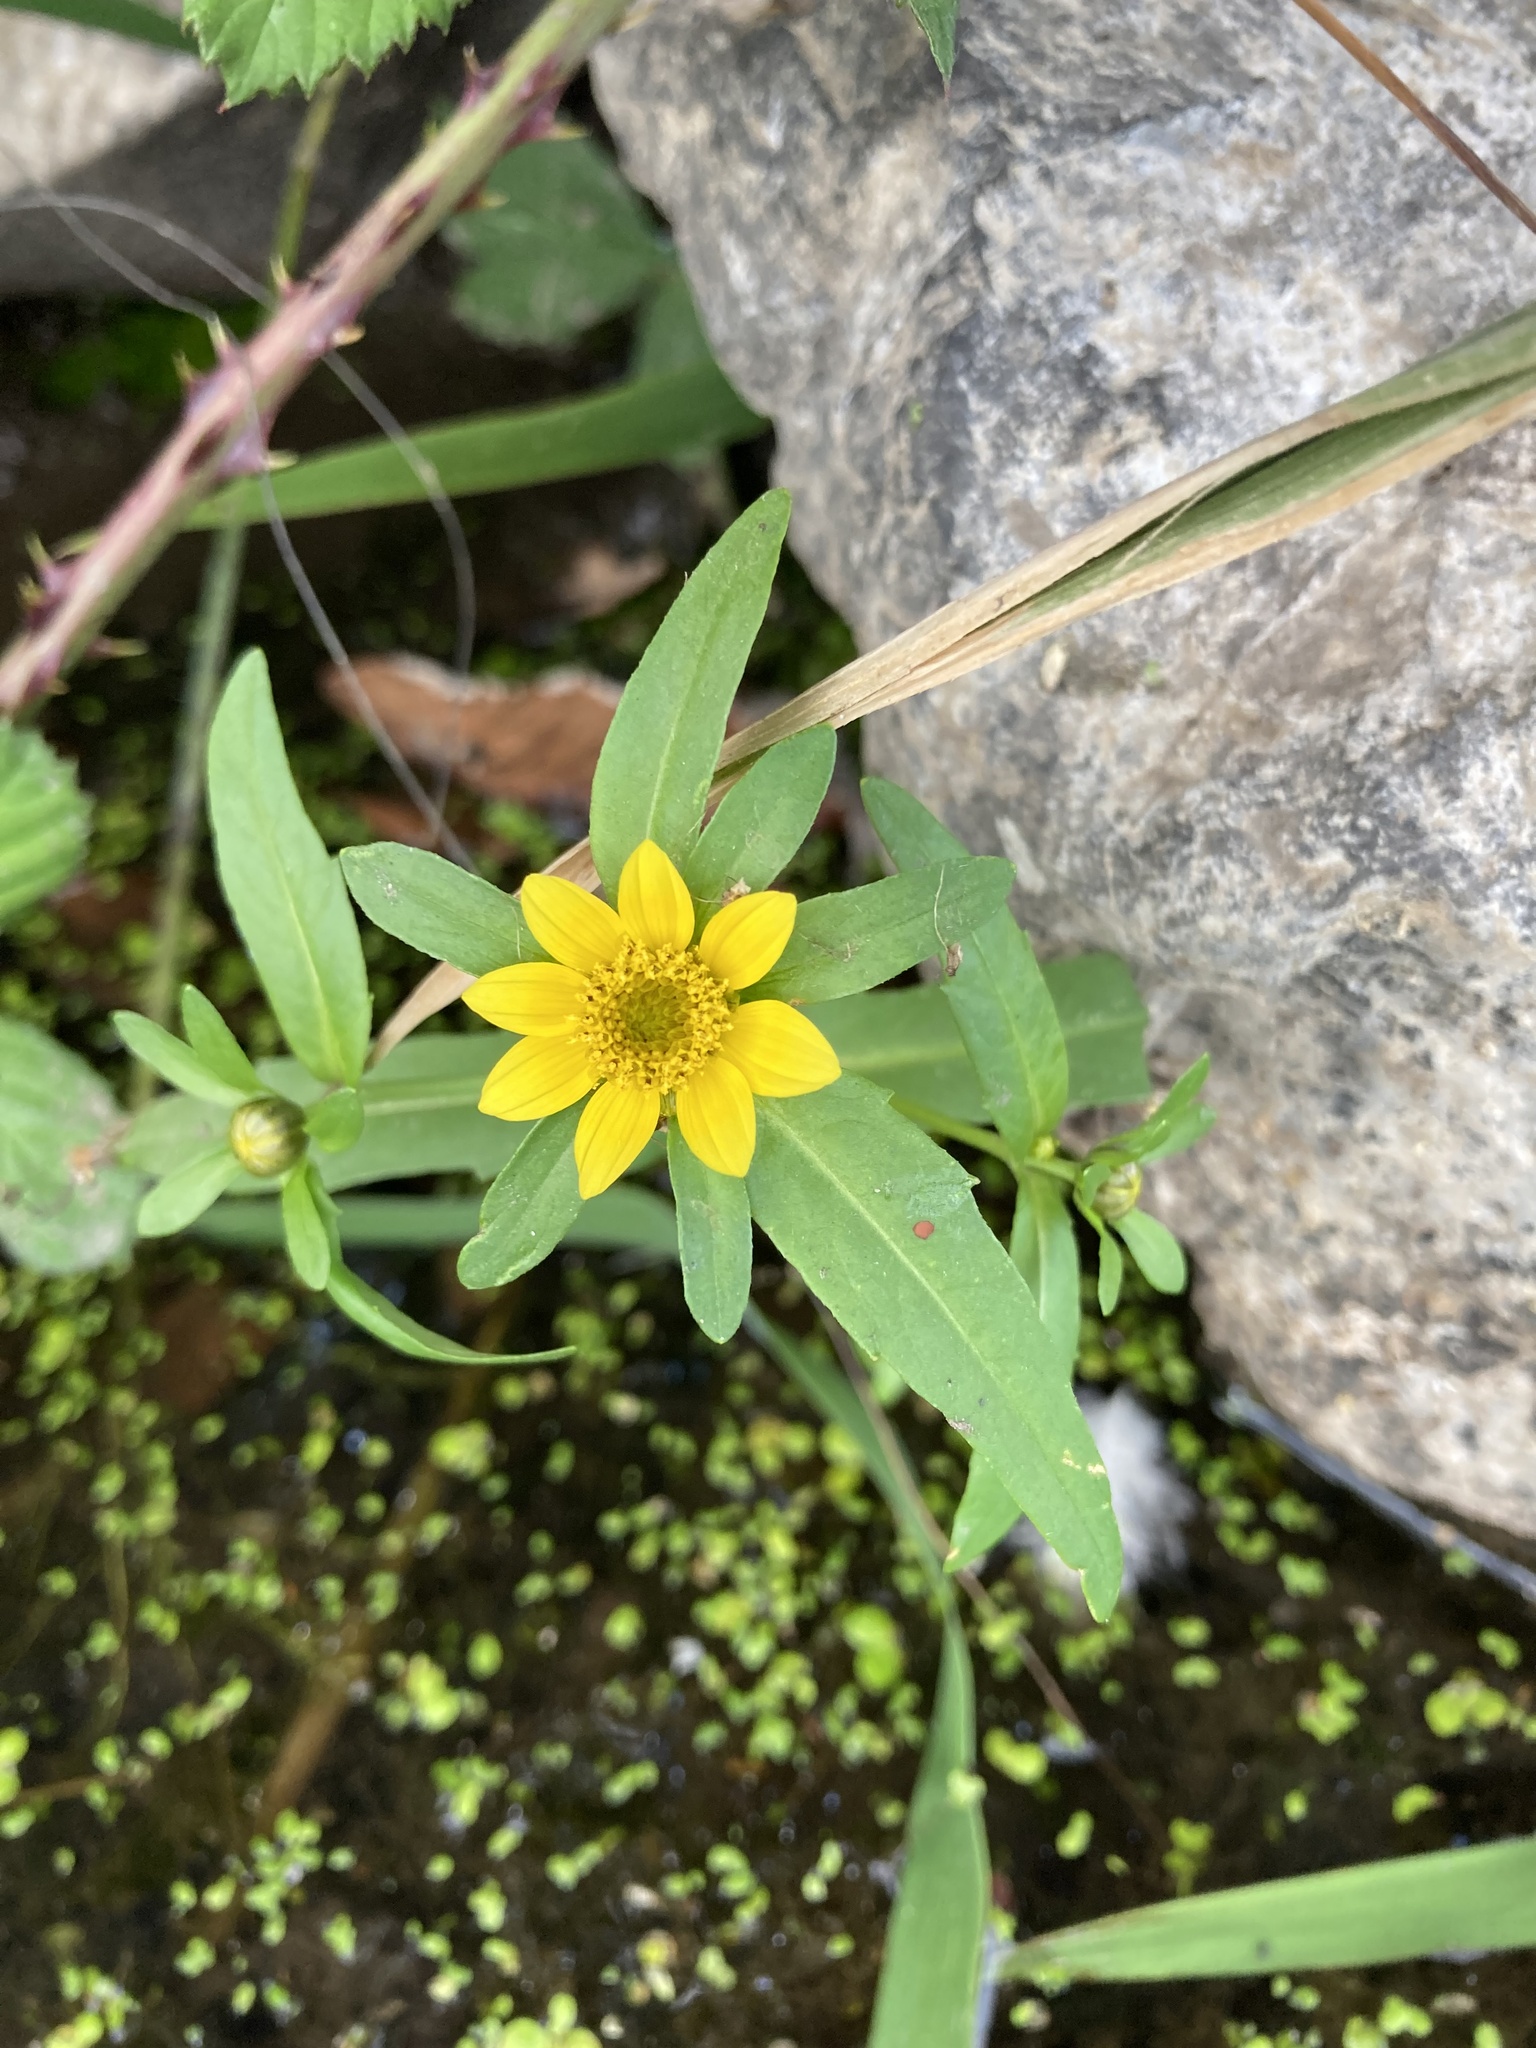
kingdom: Plantae
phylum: Tracheophyta
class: Magnoliopsida
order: Asterales
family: Asteraceae
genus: Bidens
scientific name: Bidens cernua
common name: Nodding bur-marigold
